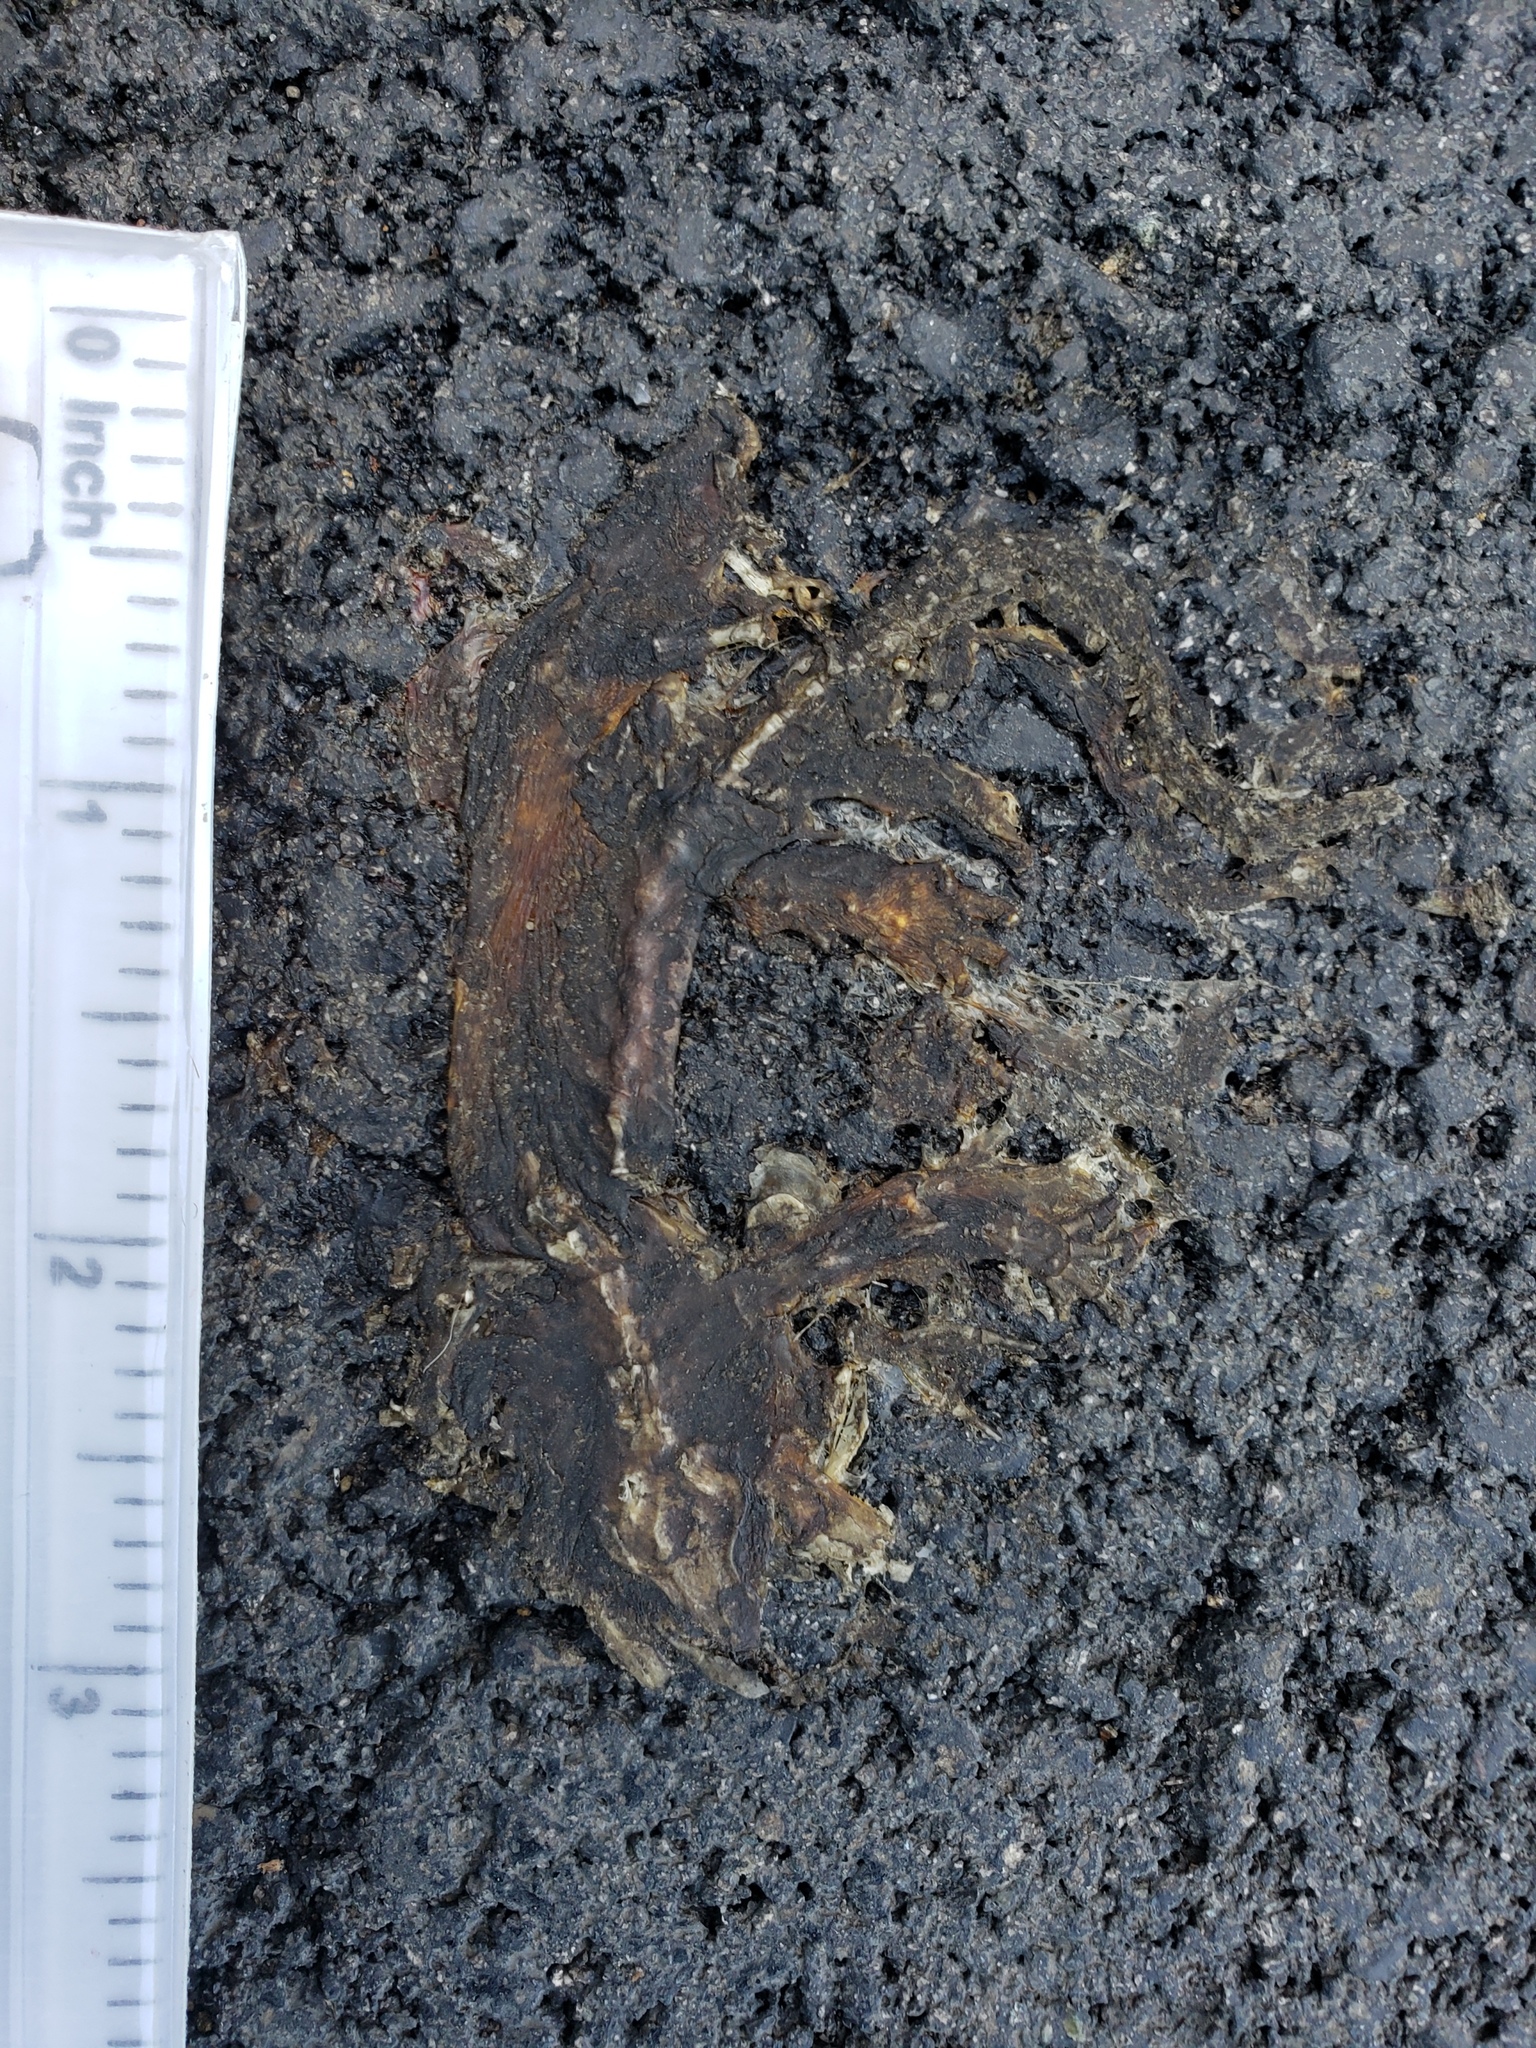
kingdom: Animalia
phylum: Chordata
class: Amphibia
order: Caudata
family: Salamandridae
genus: Taricha
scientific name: Taricha
